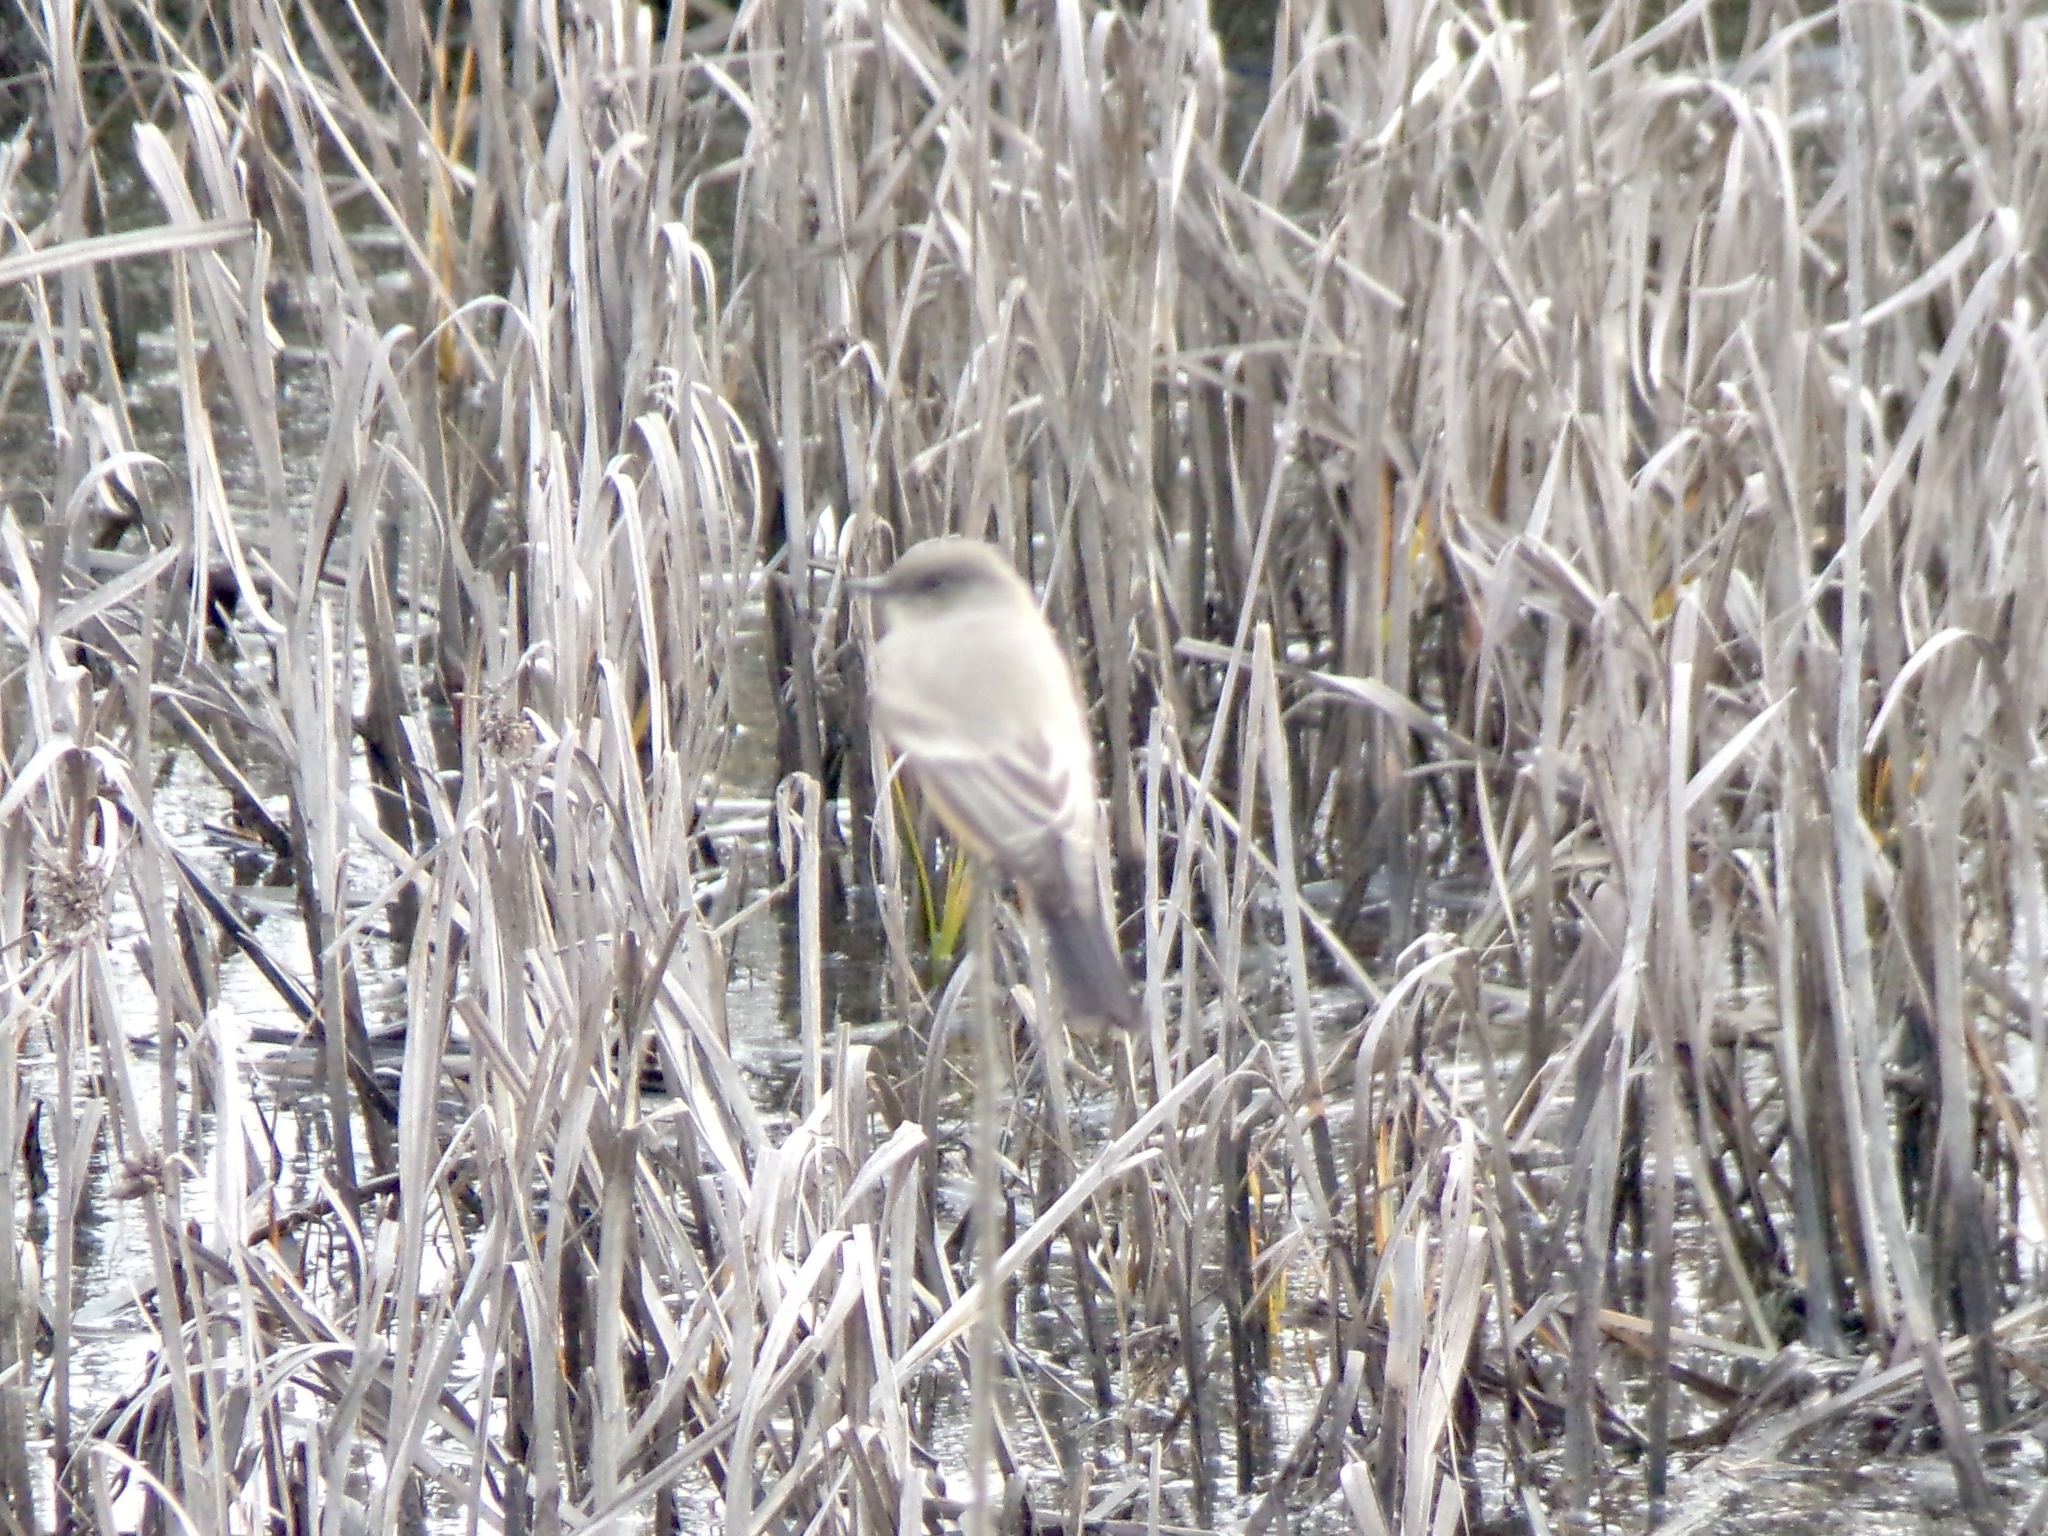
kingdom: Animalia
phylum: Chordata
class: Aves
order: Passeriformes
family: Tyrannidae
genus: Sayornis
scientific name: Sayornis saya
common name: Say's phoebe
